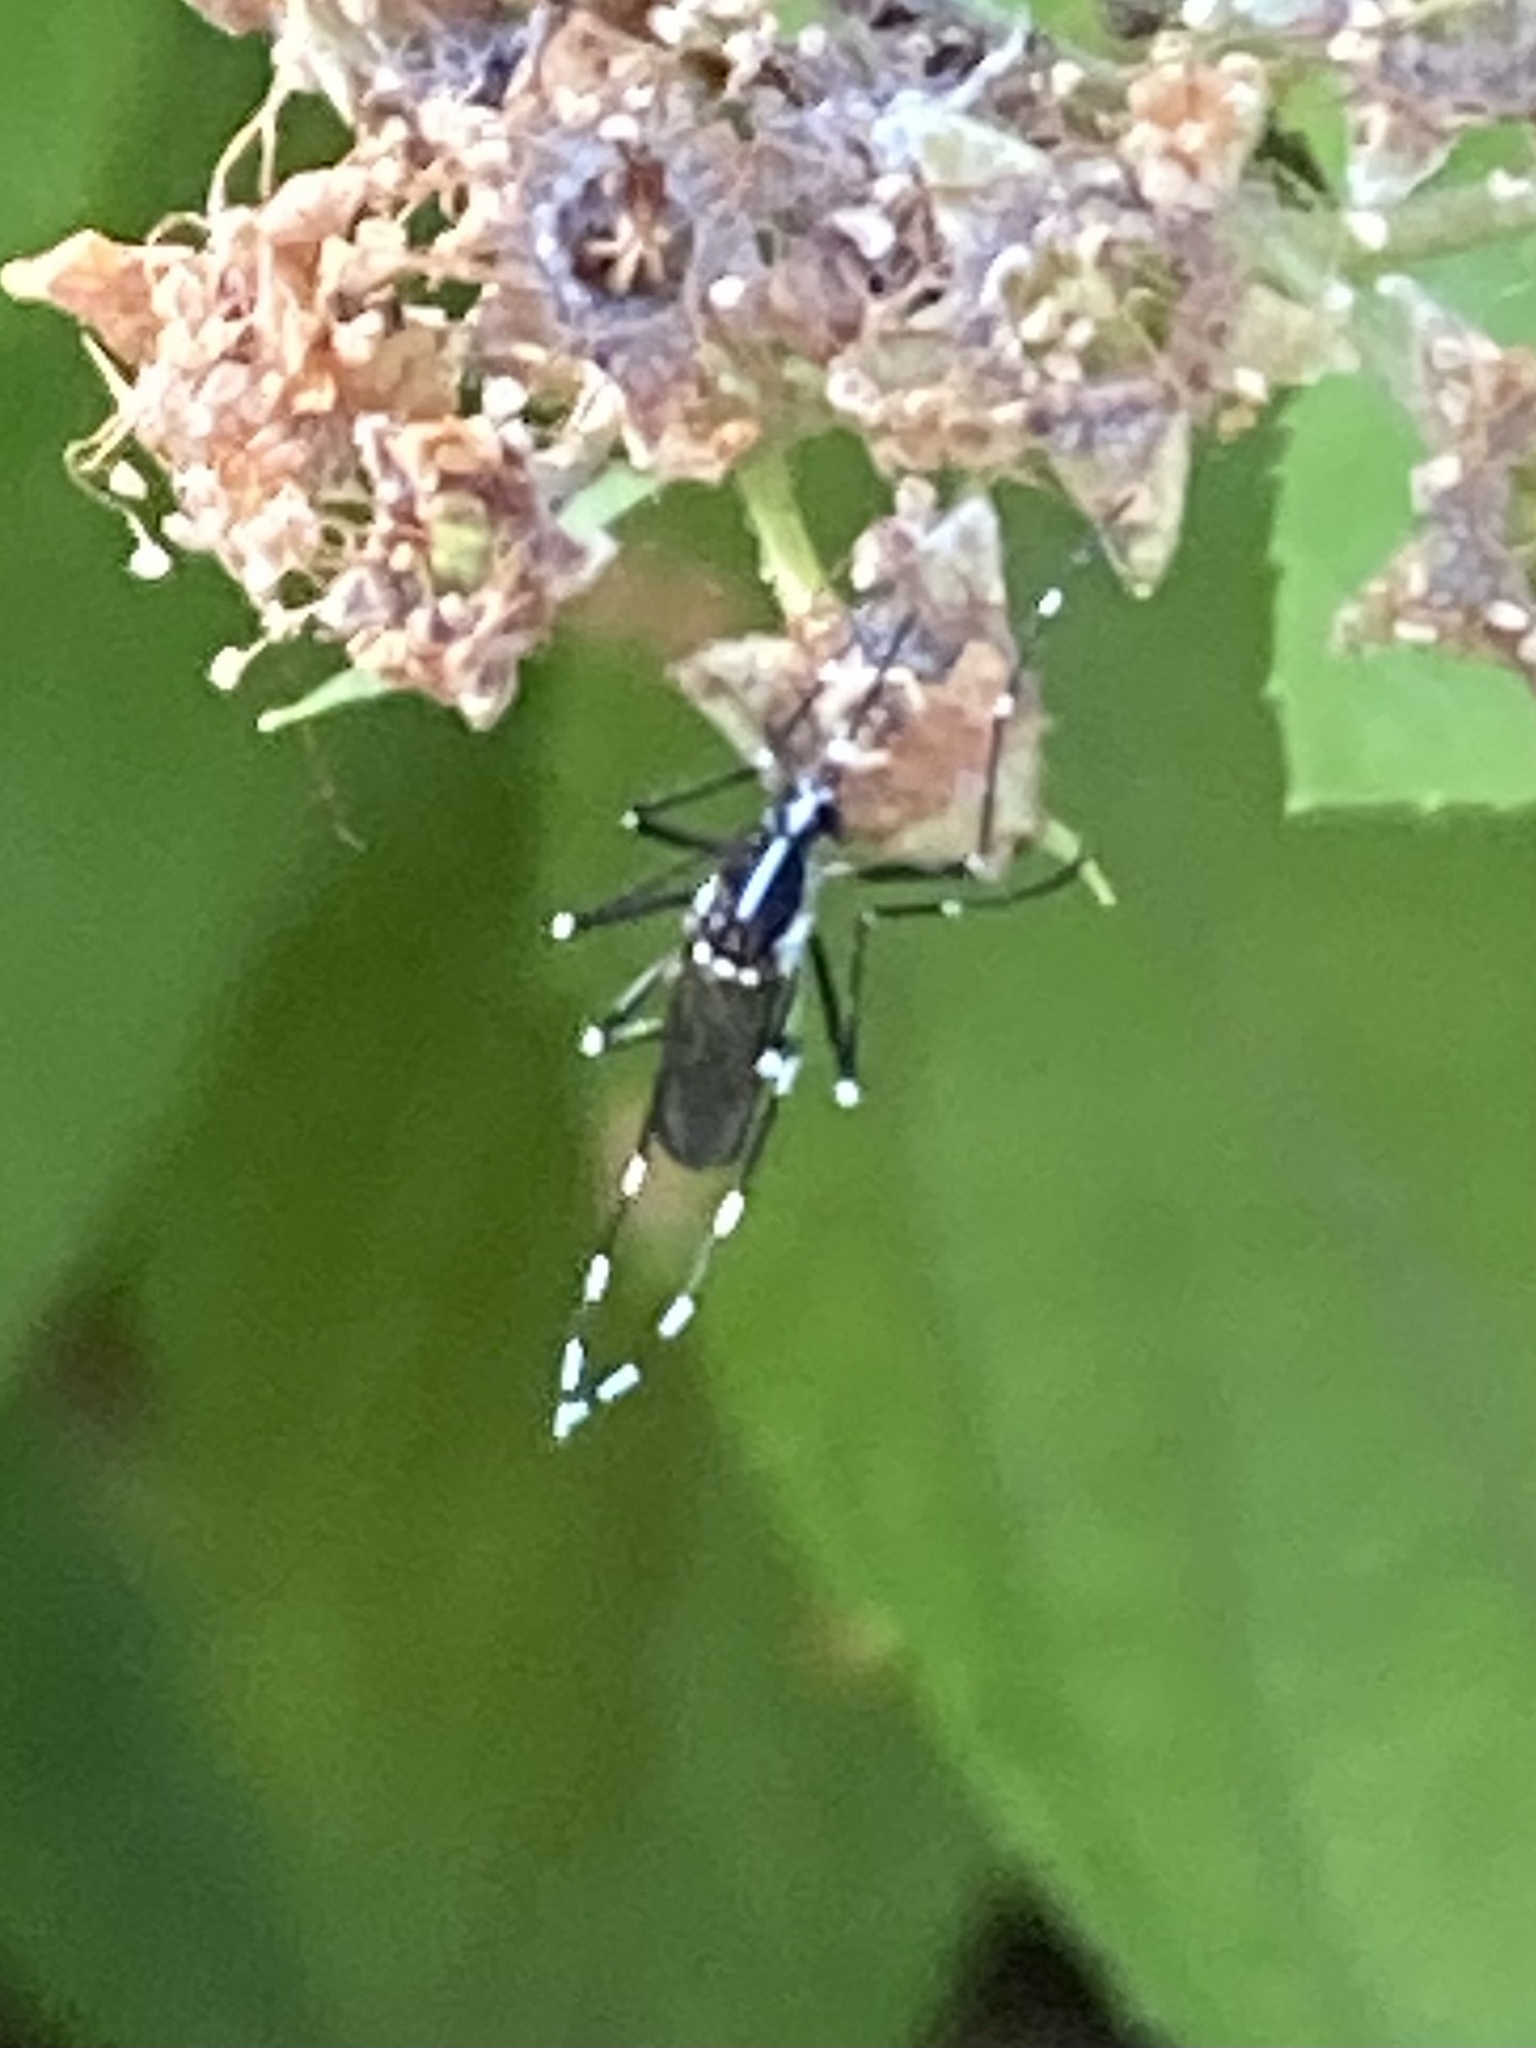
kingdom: Animalia
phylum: Arthropoda
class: Insecta
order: Diptera
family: Culicidae
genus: Aedes
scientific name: Aedes albopictus
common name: Tiger mosquito
